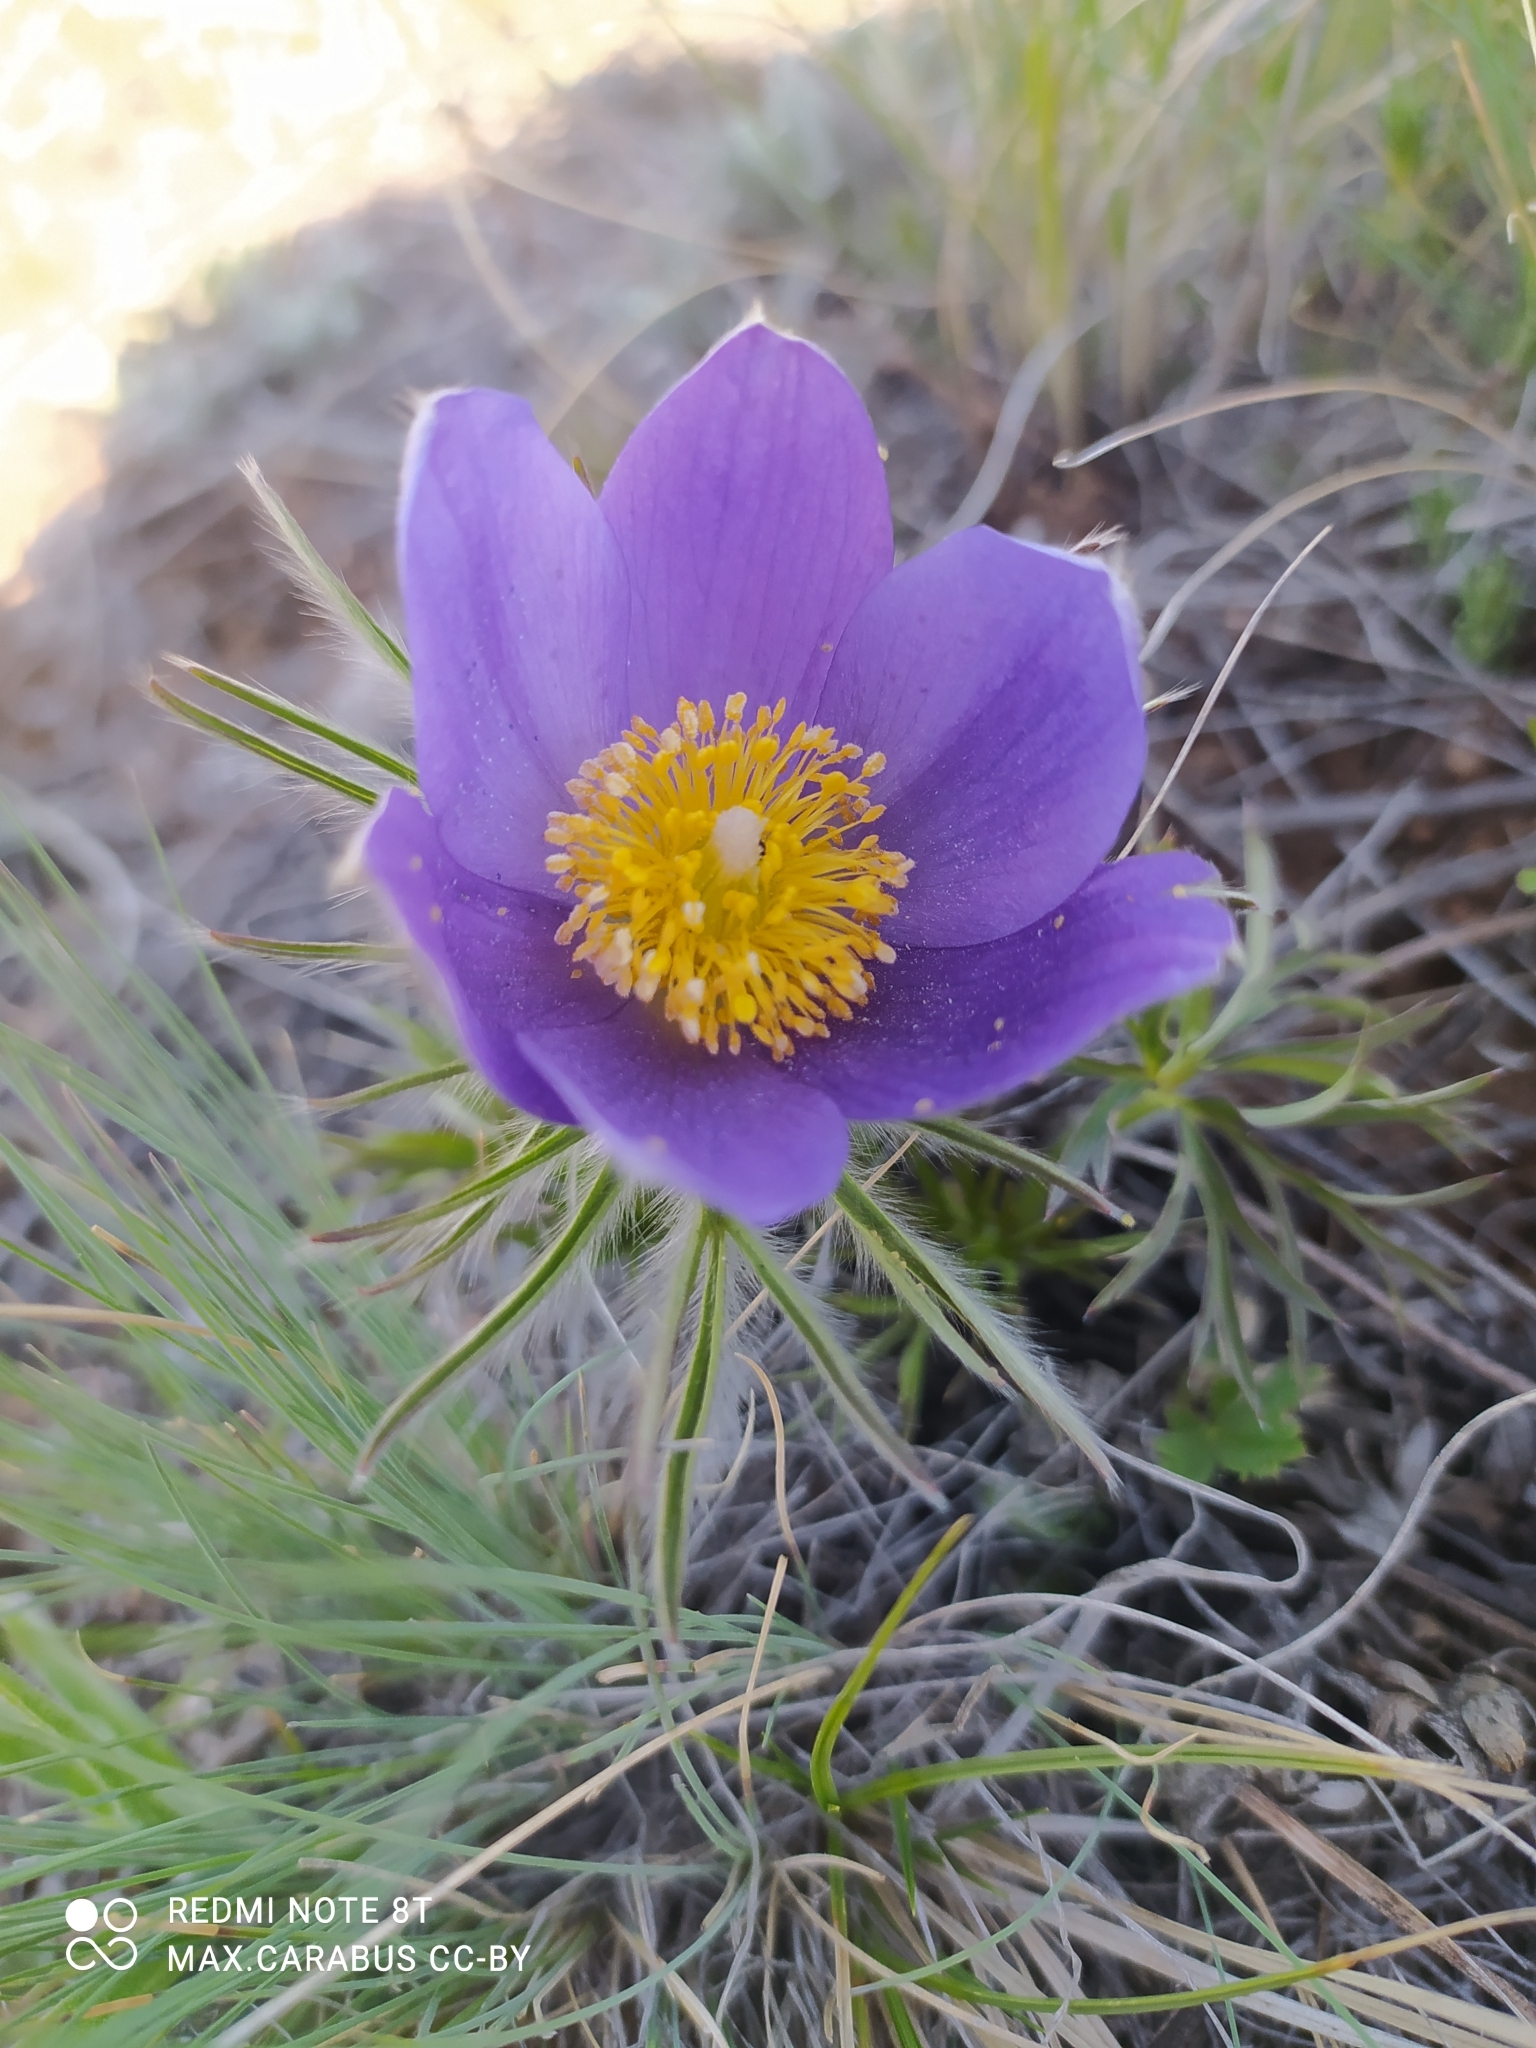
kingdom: Plantae
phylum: Tracheophyta
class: Magnoliopsida
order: Ranunculales
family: Ranunculaceae
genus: Pulsatilla
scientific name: Pulsatilla patens
